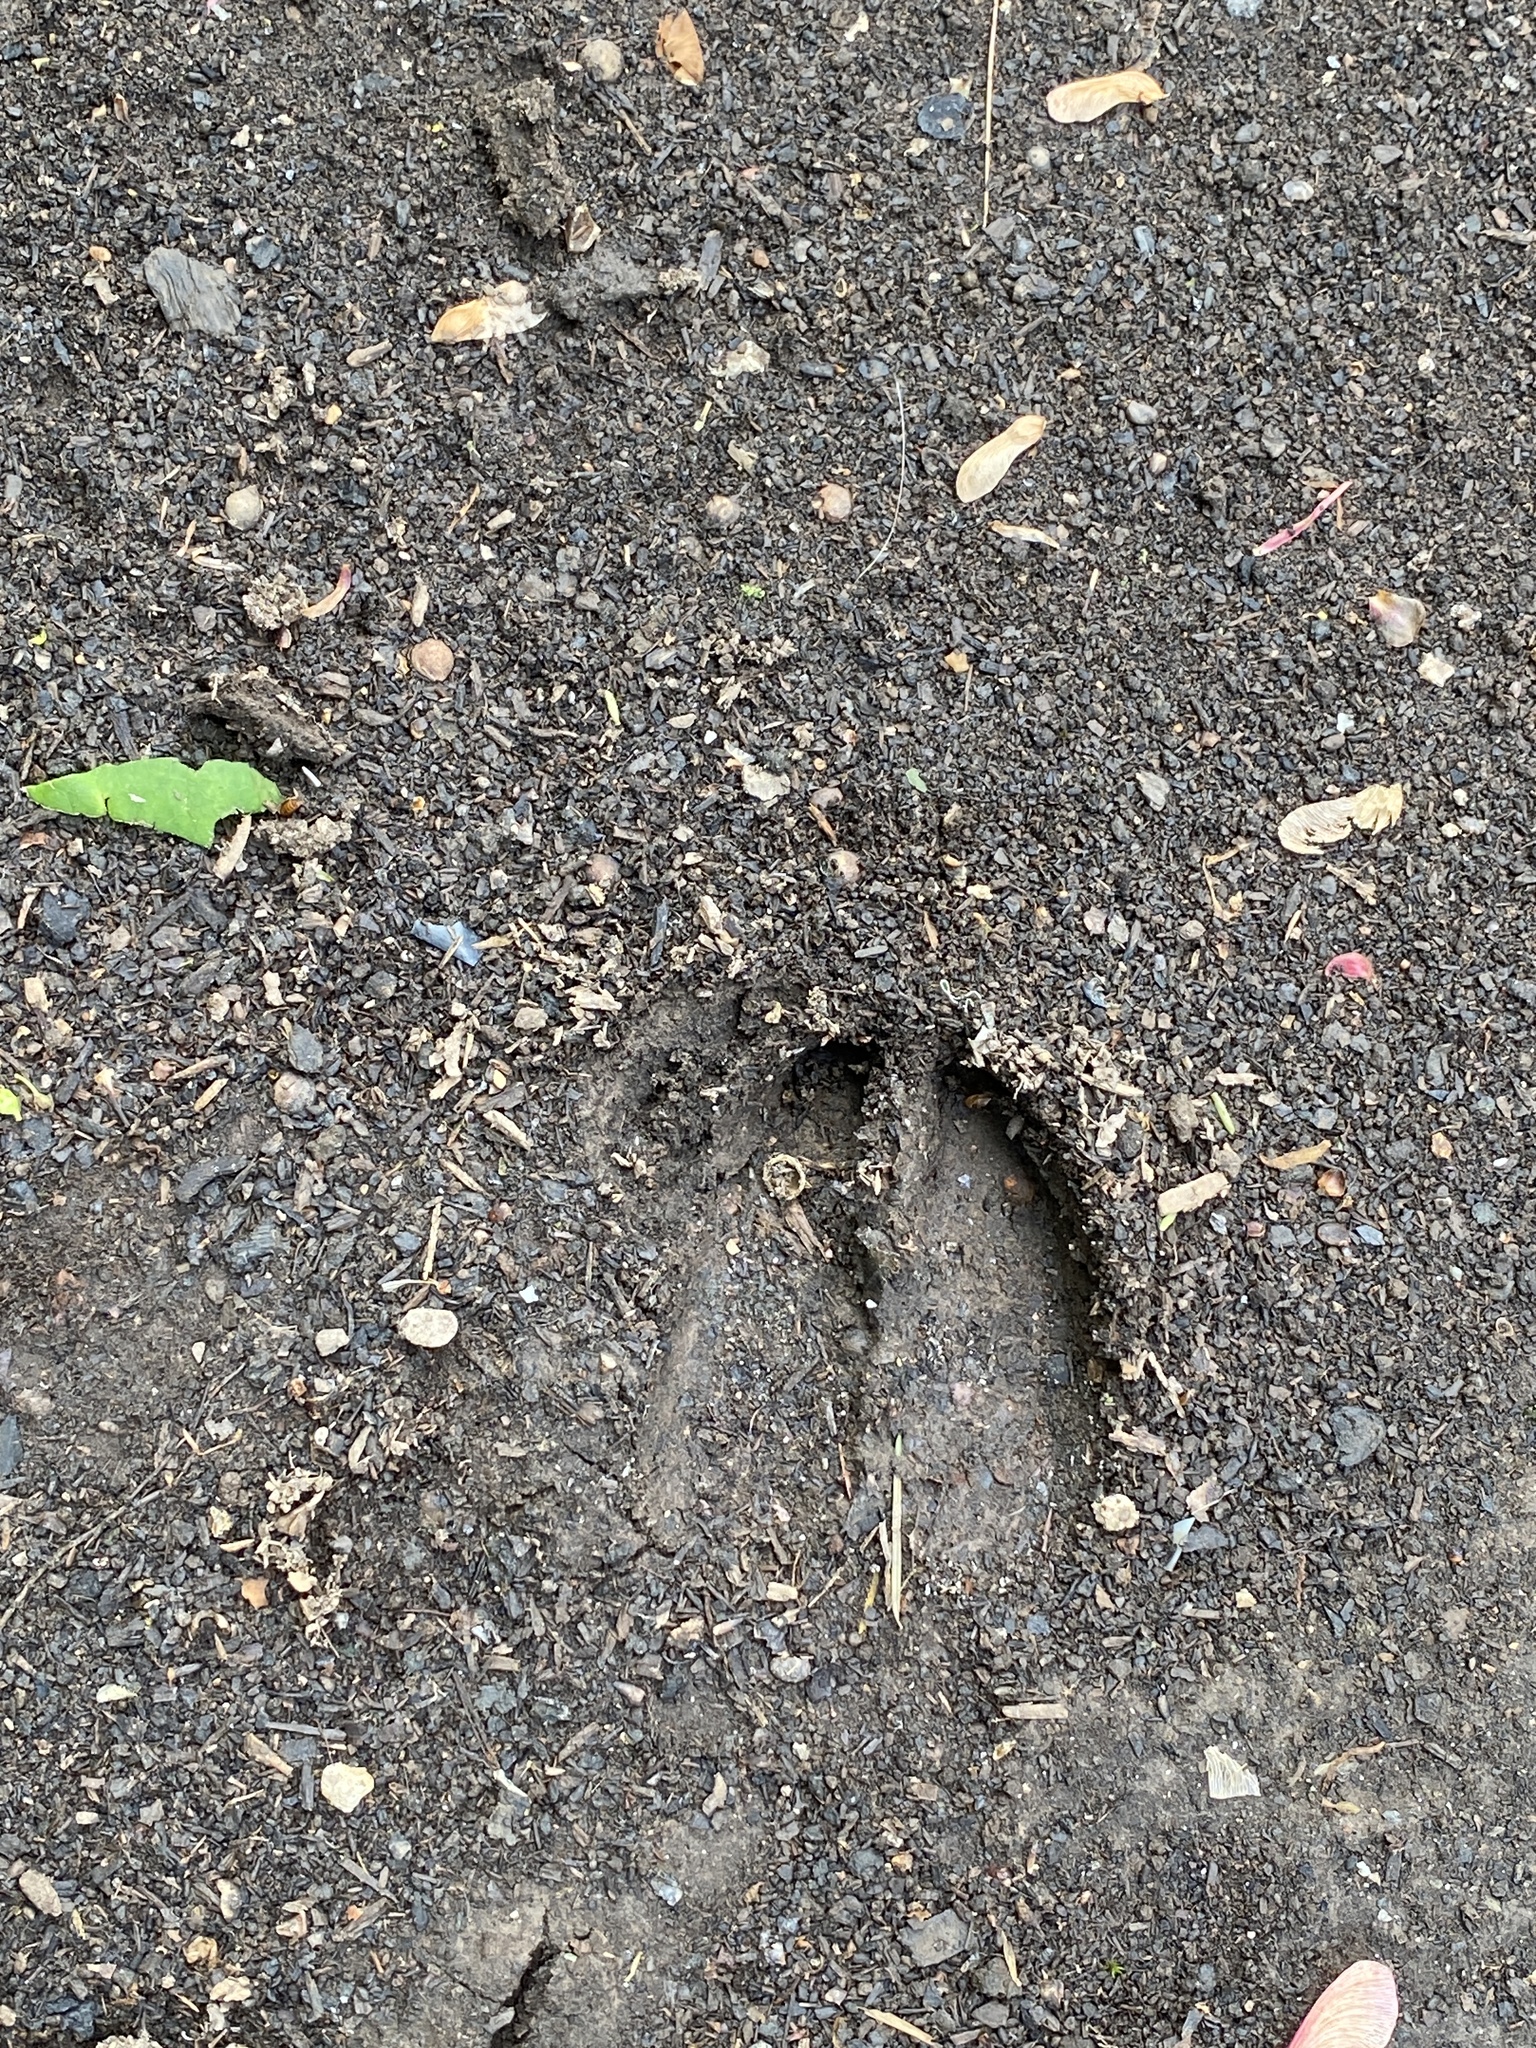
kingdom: Animalia
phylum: Chordata
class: Mammalia
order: Artiodactyla
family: Cervidae
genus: Odocoileus
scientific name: Odocoileus virginianus
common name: White-tailed deer
